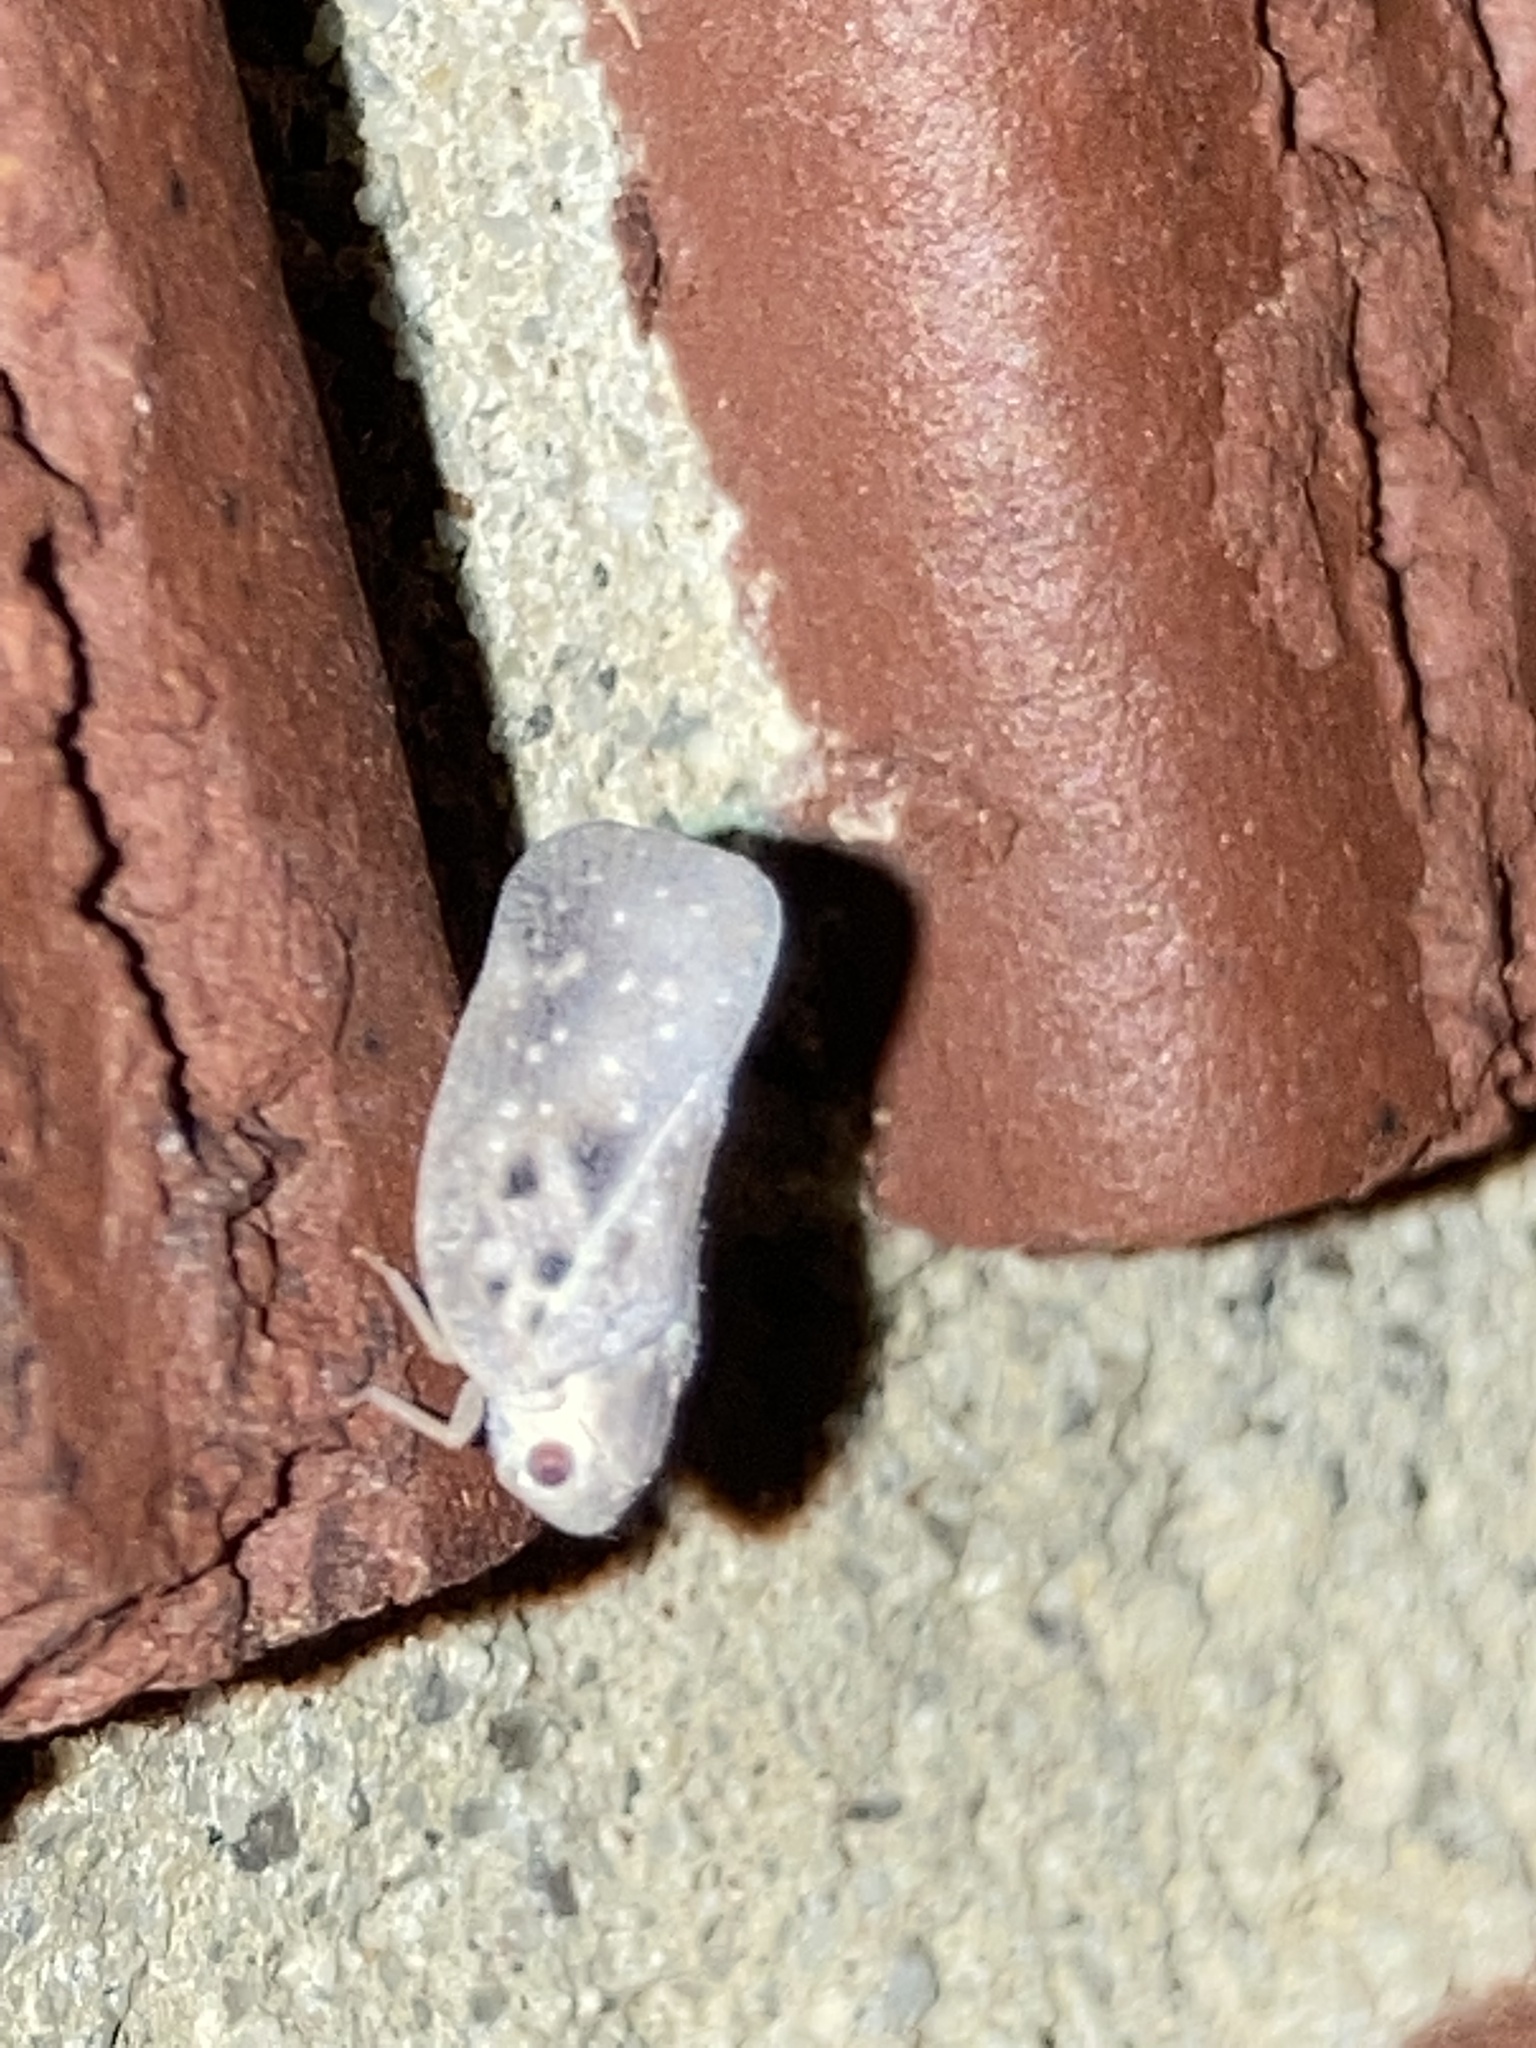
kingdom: Animalia
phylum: Arthropoda
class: Insecta
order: Hemiptera
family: Flatidae
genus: Metcalfa
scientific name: Metcalfa pruinosa
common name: Citrus flatid planthopper
